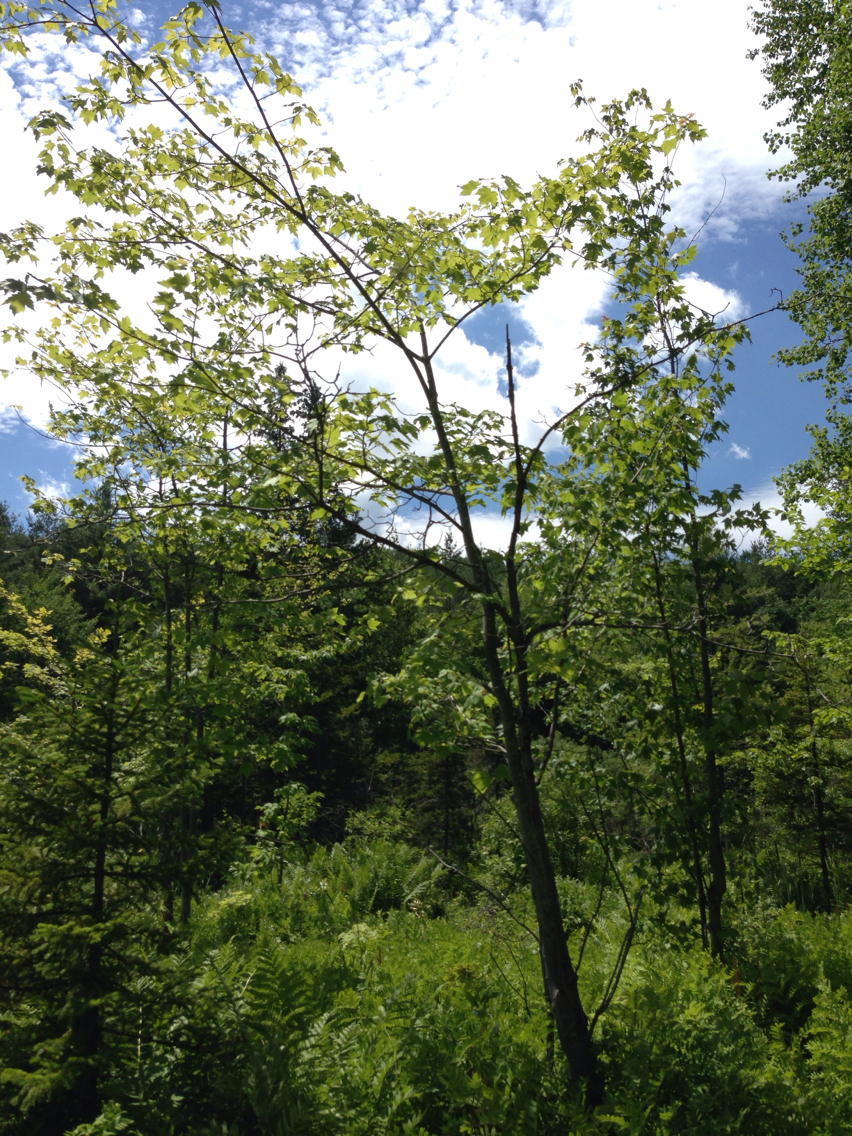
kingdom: Plantae
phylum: Tracheophyta
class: Magnoliopsida
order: Sapindales
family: Sapindaceae
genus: Acer
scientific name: Acer rubrum
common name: Red maple
